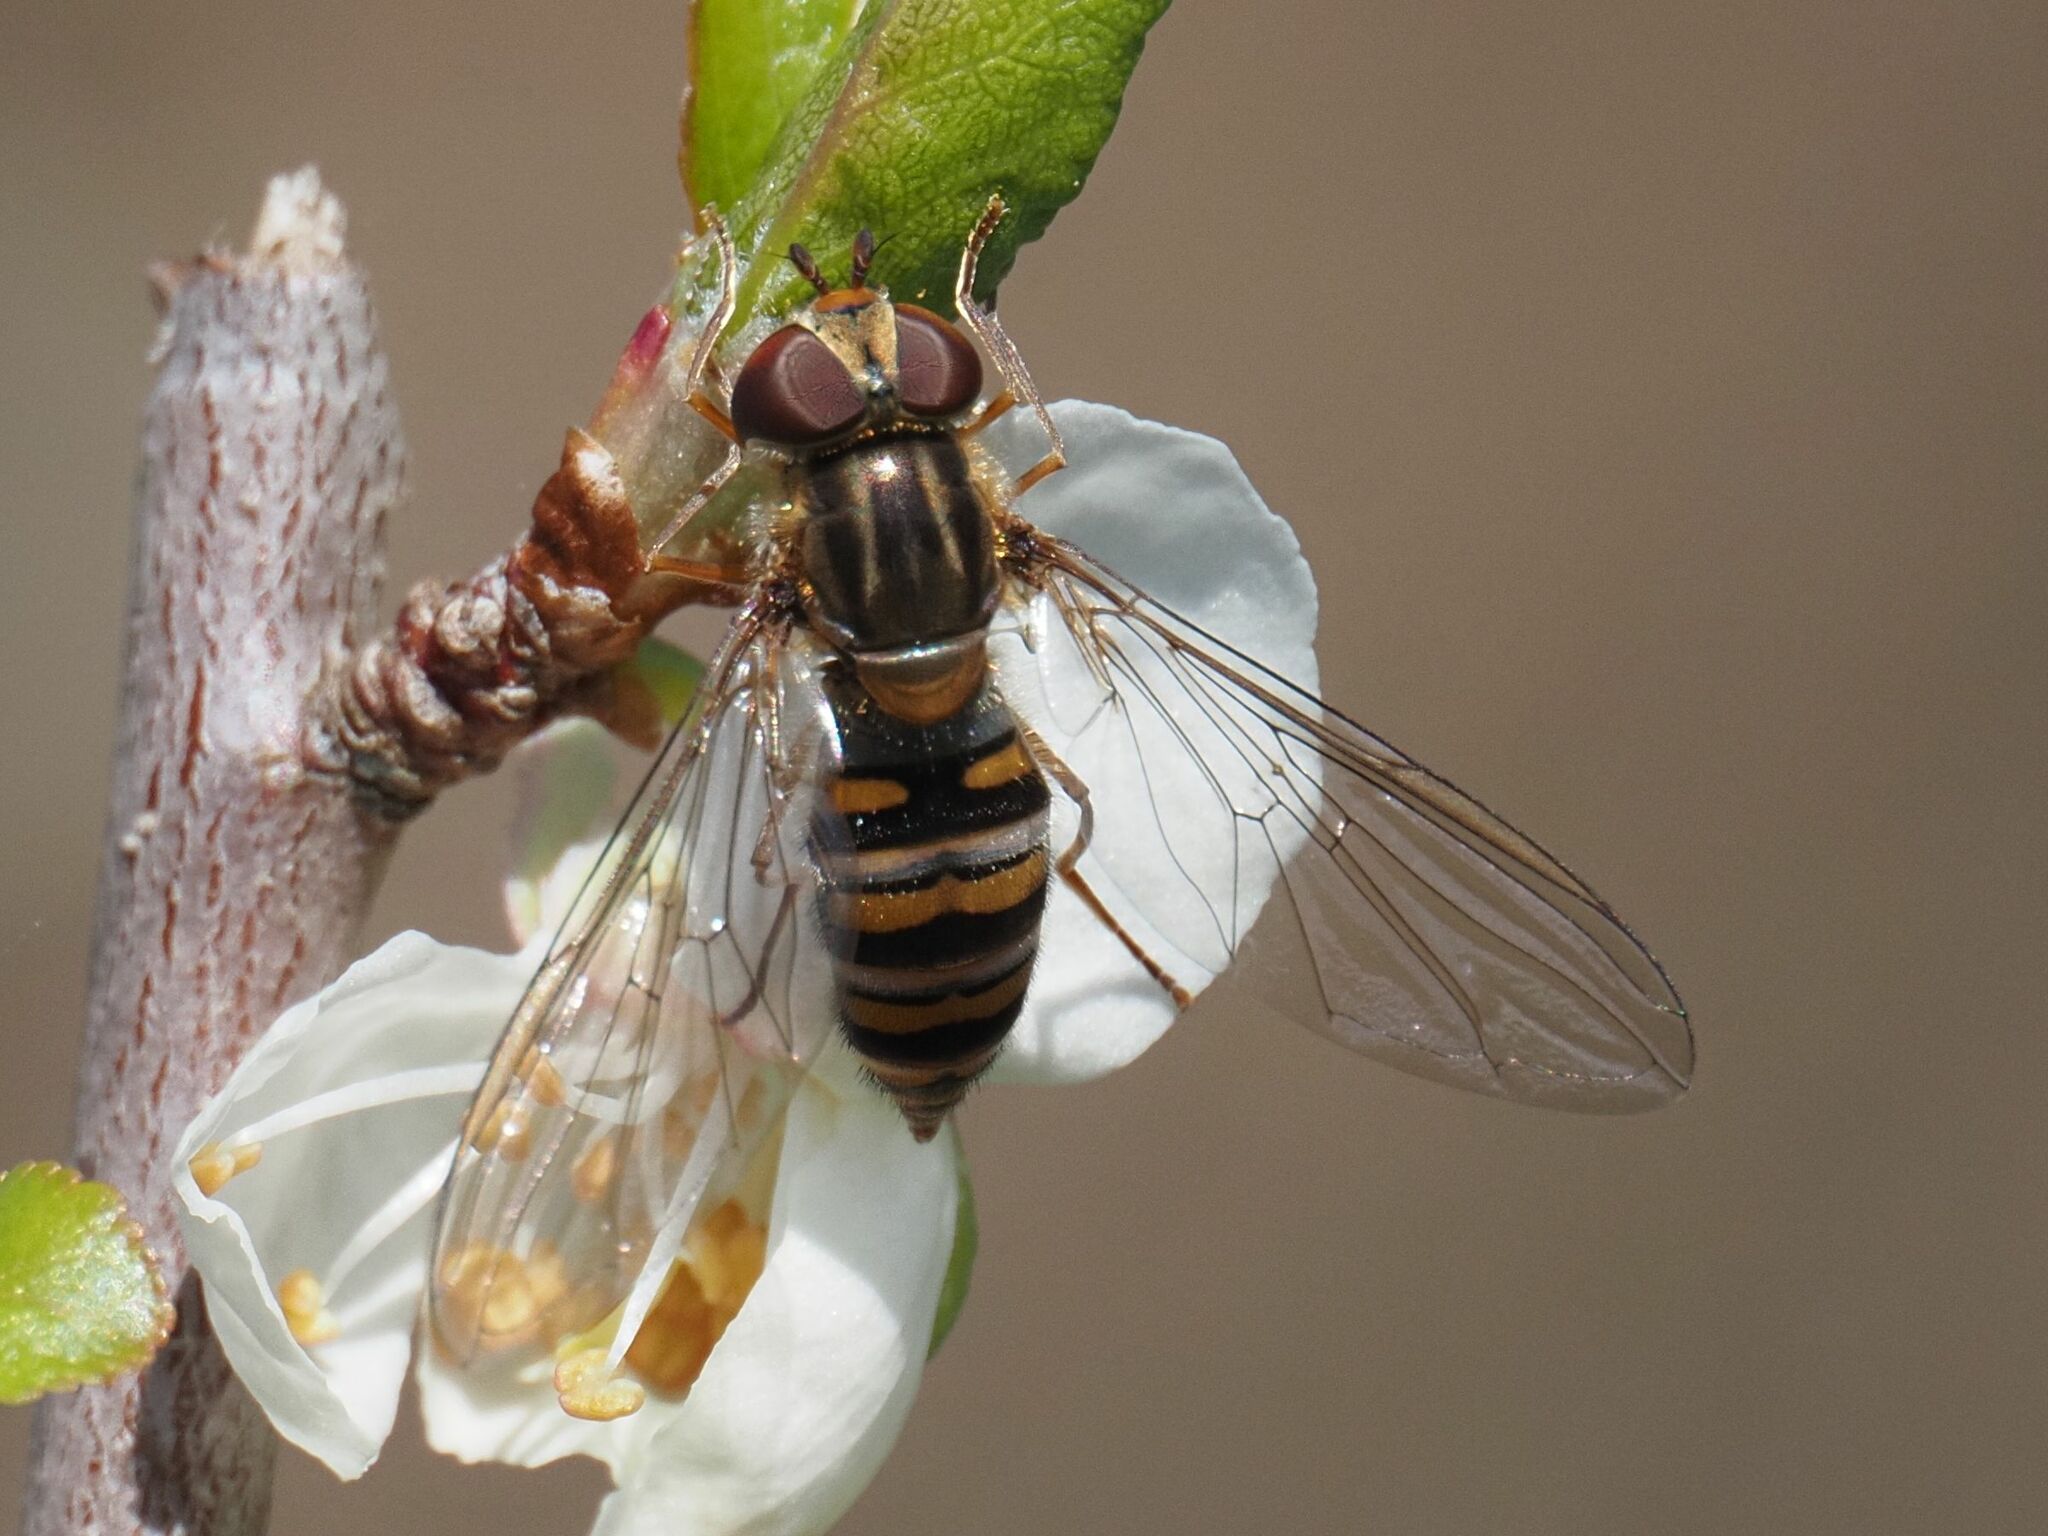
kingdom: Animalia
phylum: Arthropoda
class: Insecta
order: Diptera
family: Syrphidae
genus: Episyrphus
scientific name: Episyrphus balteatus
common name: Marmalade hoverfly
